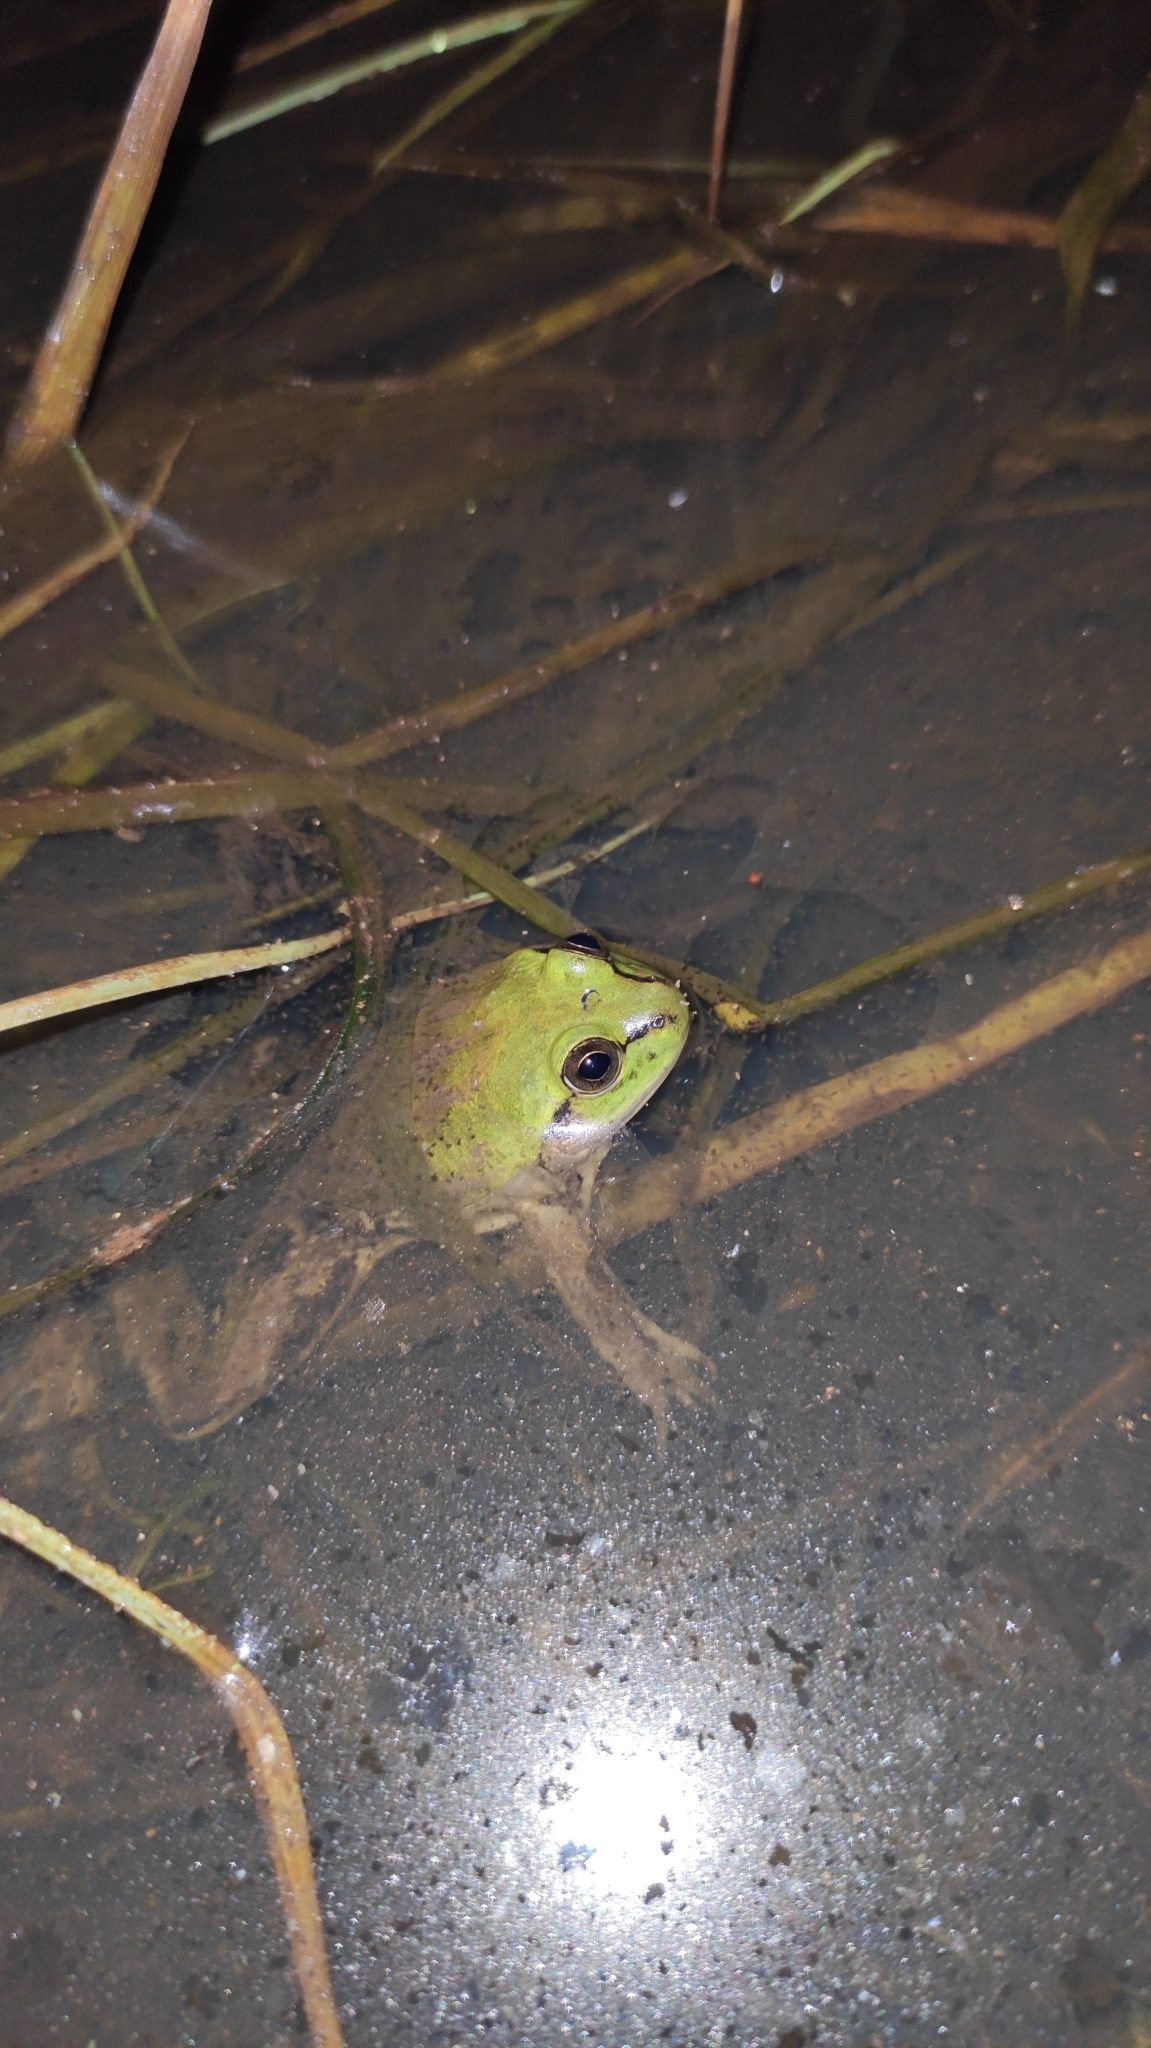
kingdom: Animalia
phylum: Chordata
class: Amphibia
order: Anura
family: Hylidae
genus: Pseudis
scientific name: Pseudis paradoxa
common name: Swimming frog
